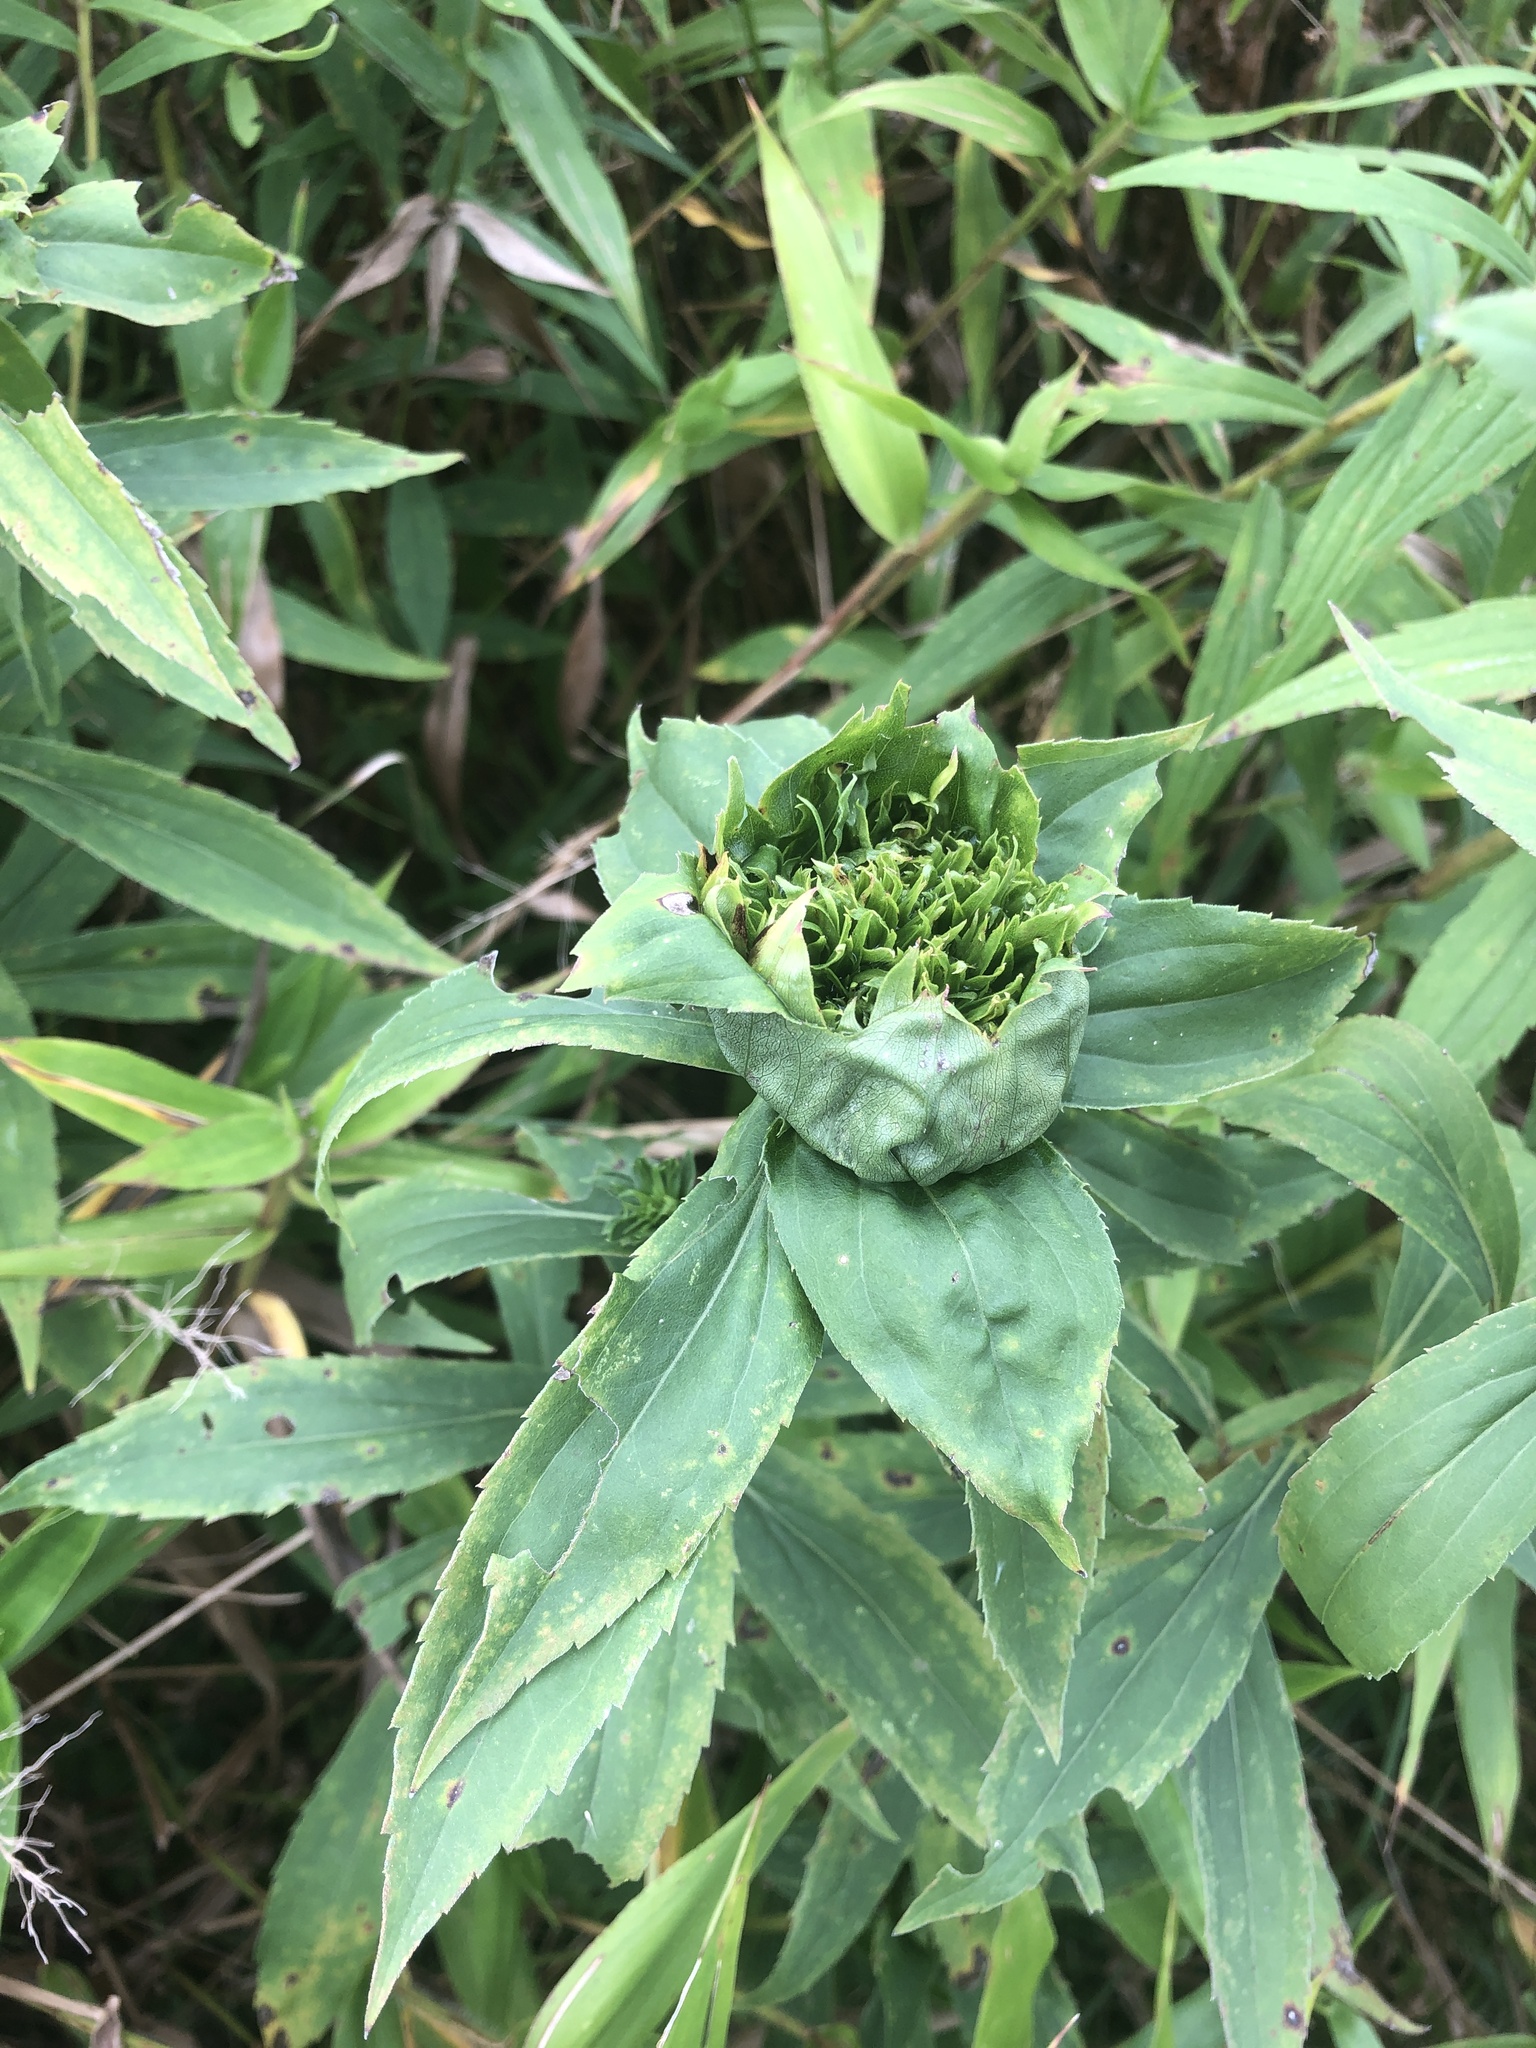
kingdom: Animalia
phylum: Arthropoda
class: Insecta
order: Diptera
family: Cecidomyiidae
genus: Rhopalomyia
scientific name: Rhopalomyia capitata
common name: Giant goldenrod bunch gall midge
